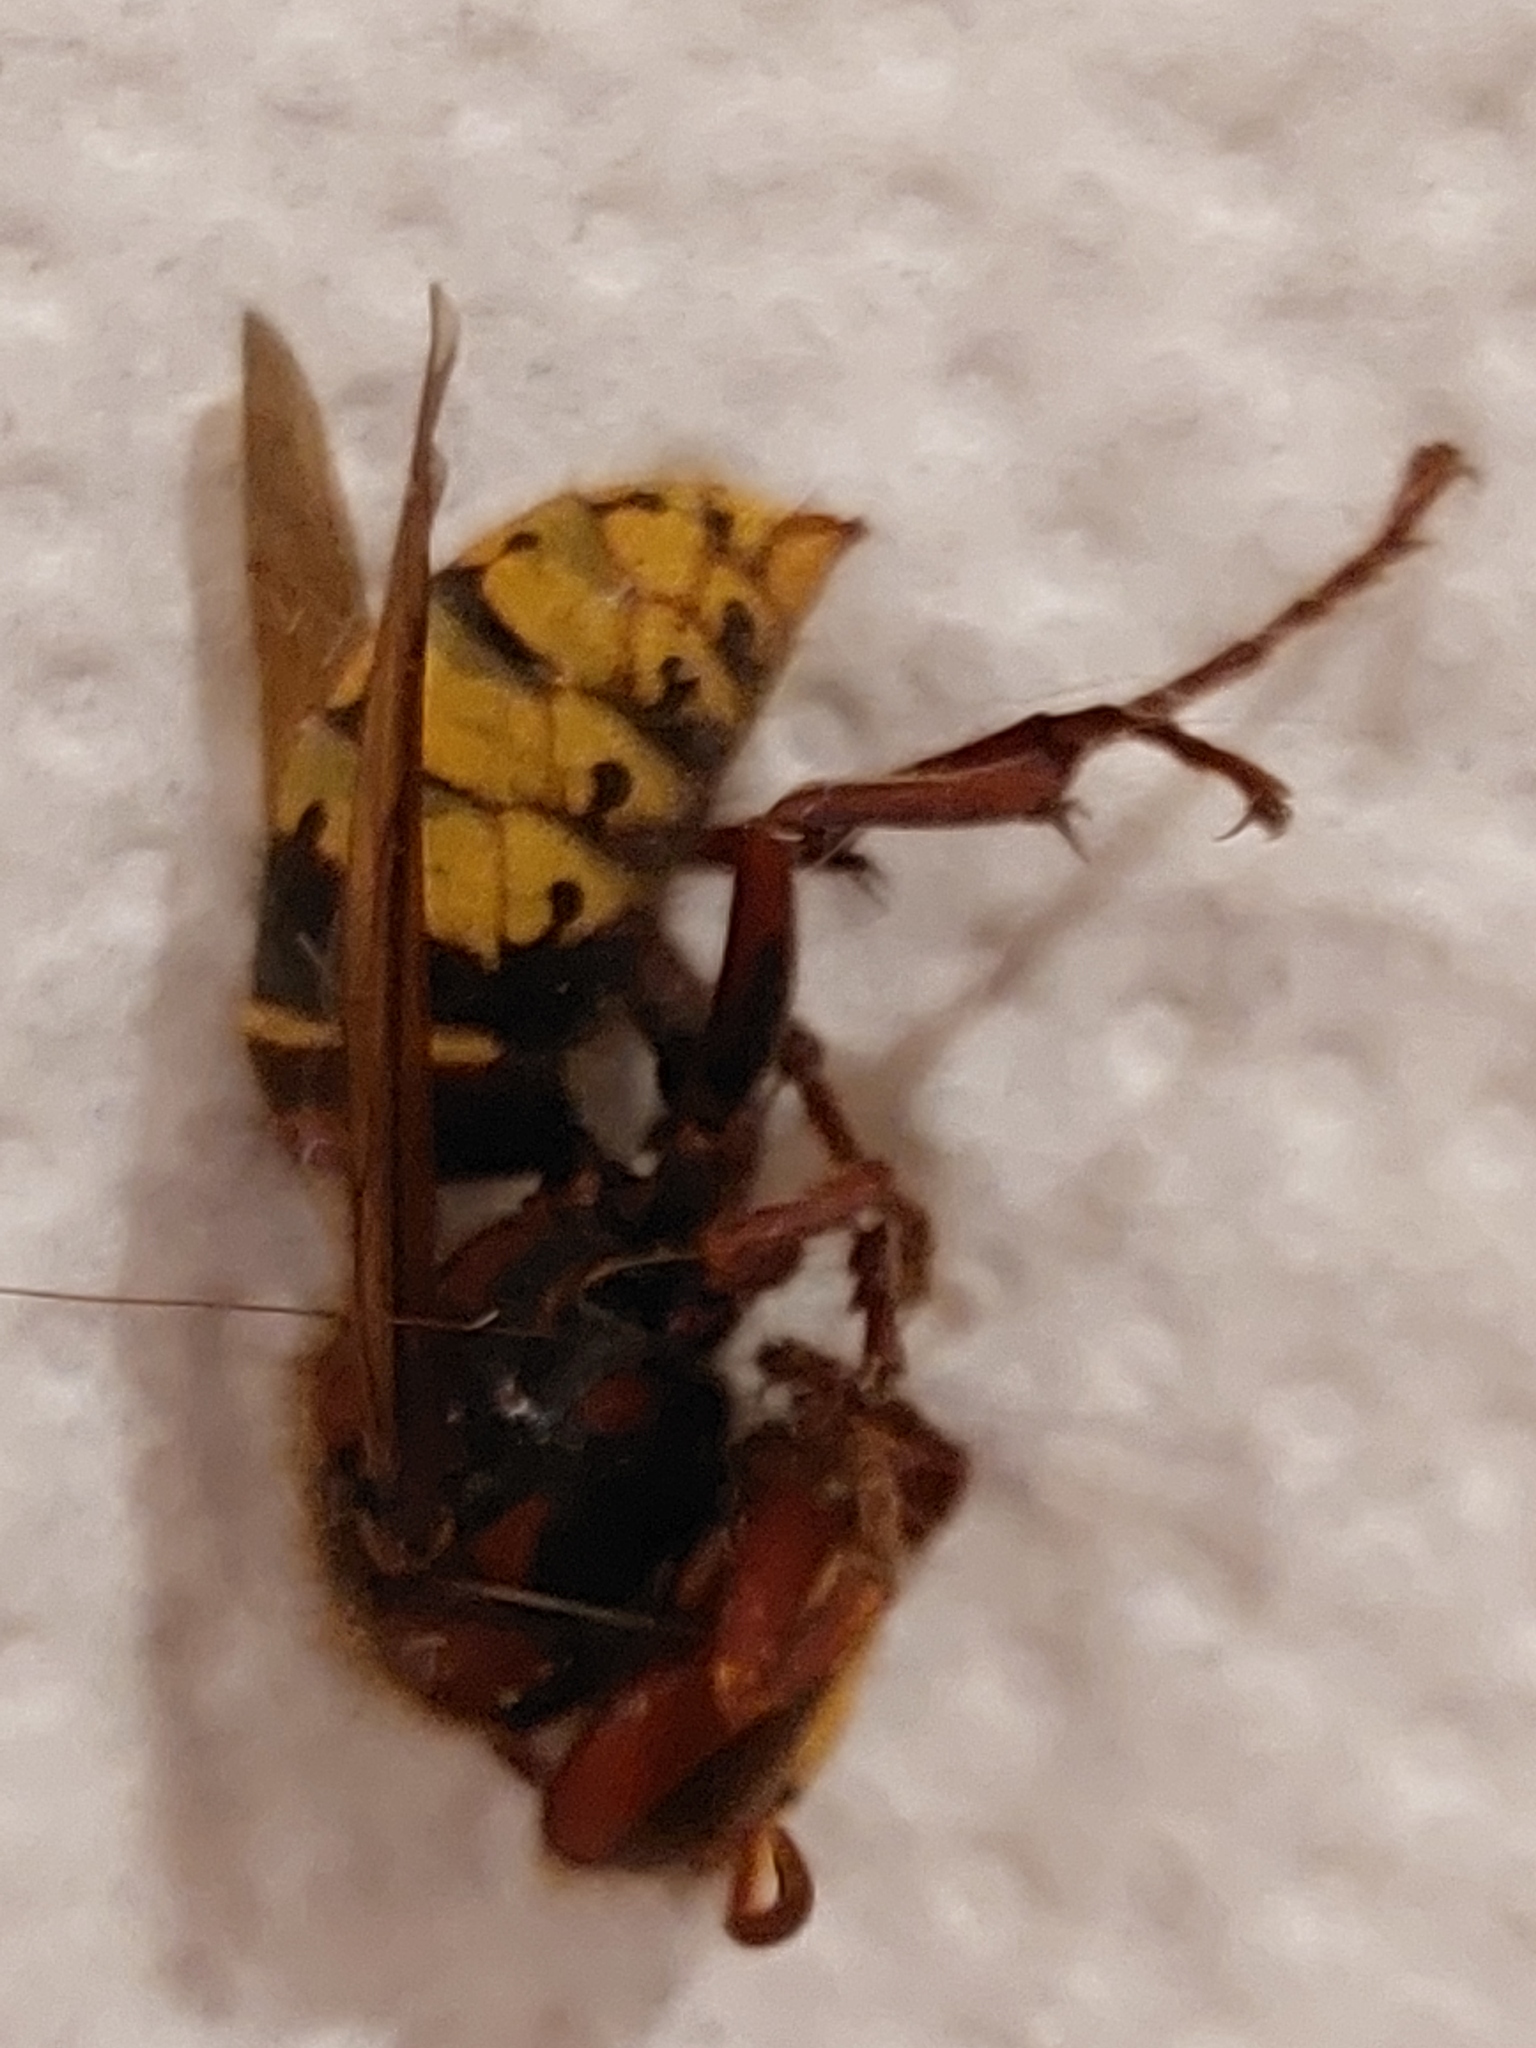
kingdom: Animalia
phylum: Arthropoda
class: Insecta
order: Hymenoptera
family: Vespidae
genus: Vespa
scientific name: Vespa crabro
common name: Hornet
